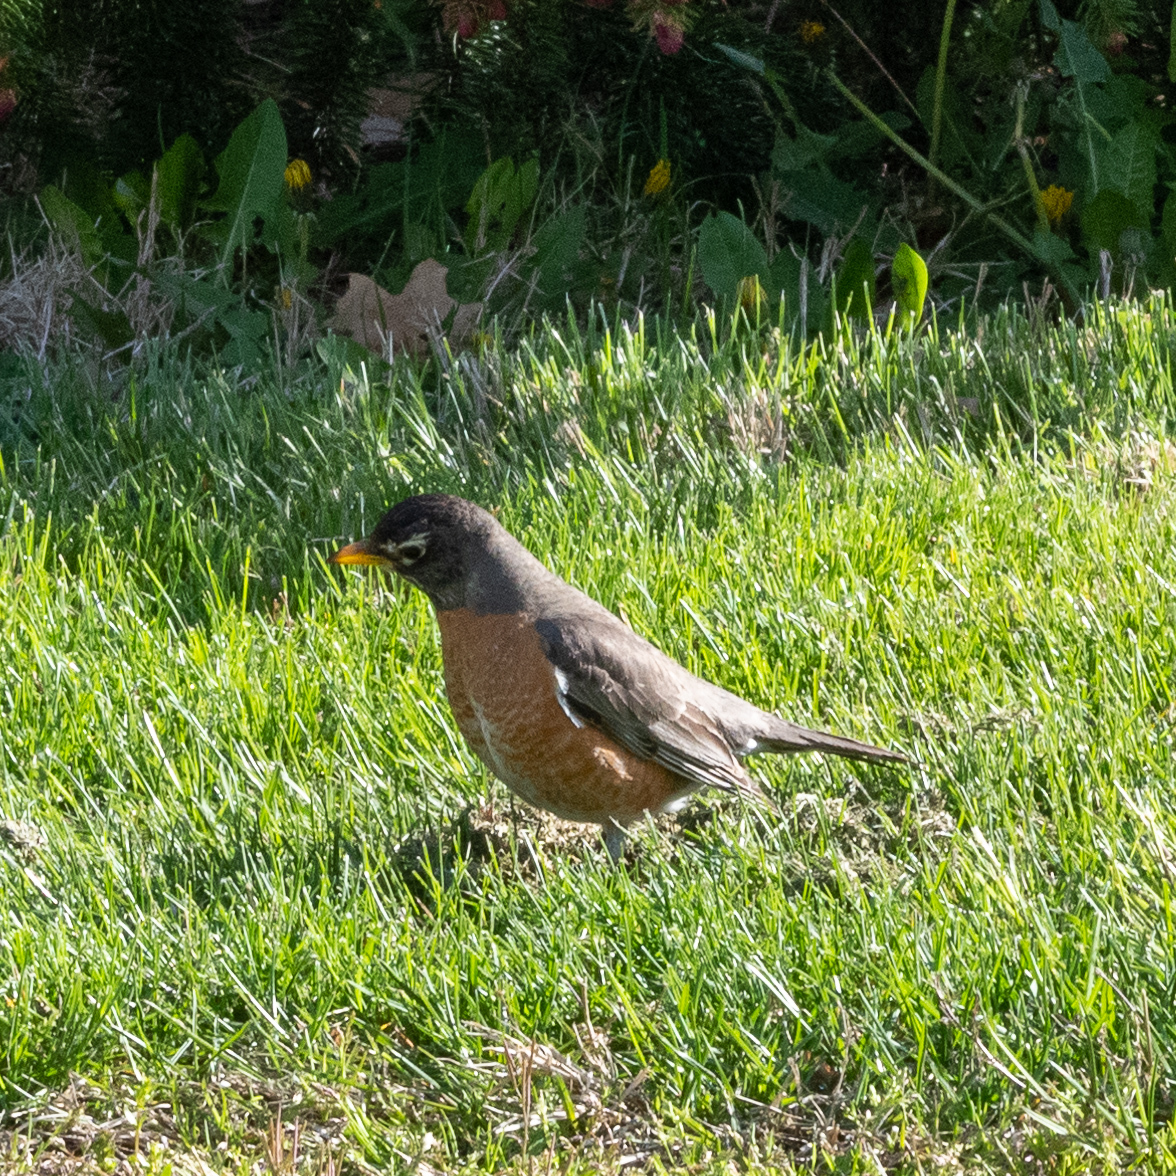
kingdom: Animalia
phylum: Chordata
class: Aves
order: Passeriformes
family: Turdidae
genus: Turdus
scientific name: Turdus migratorius
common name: American robin
